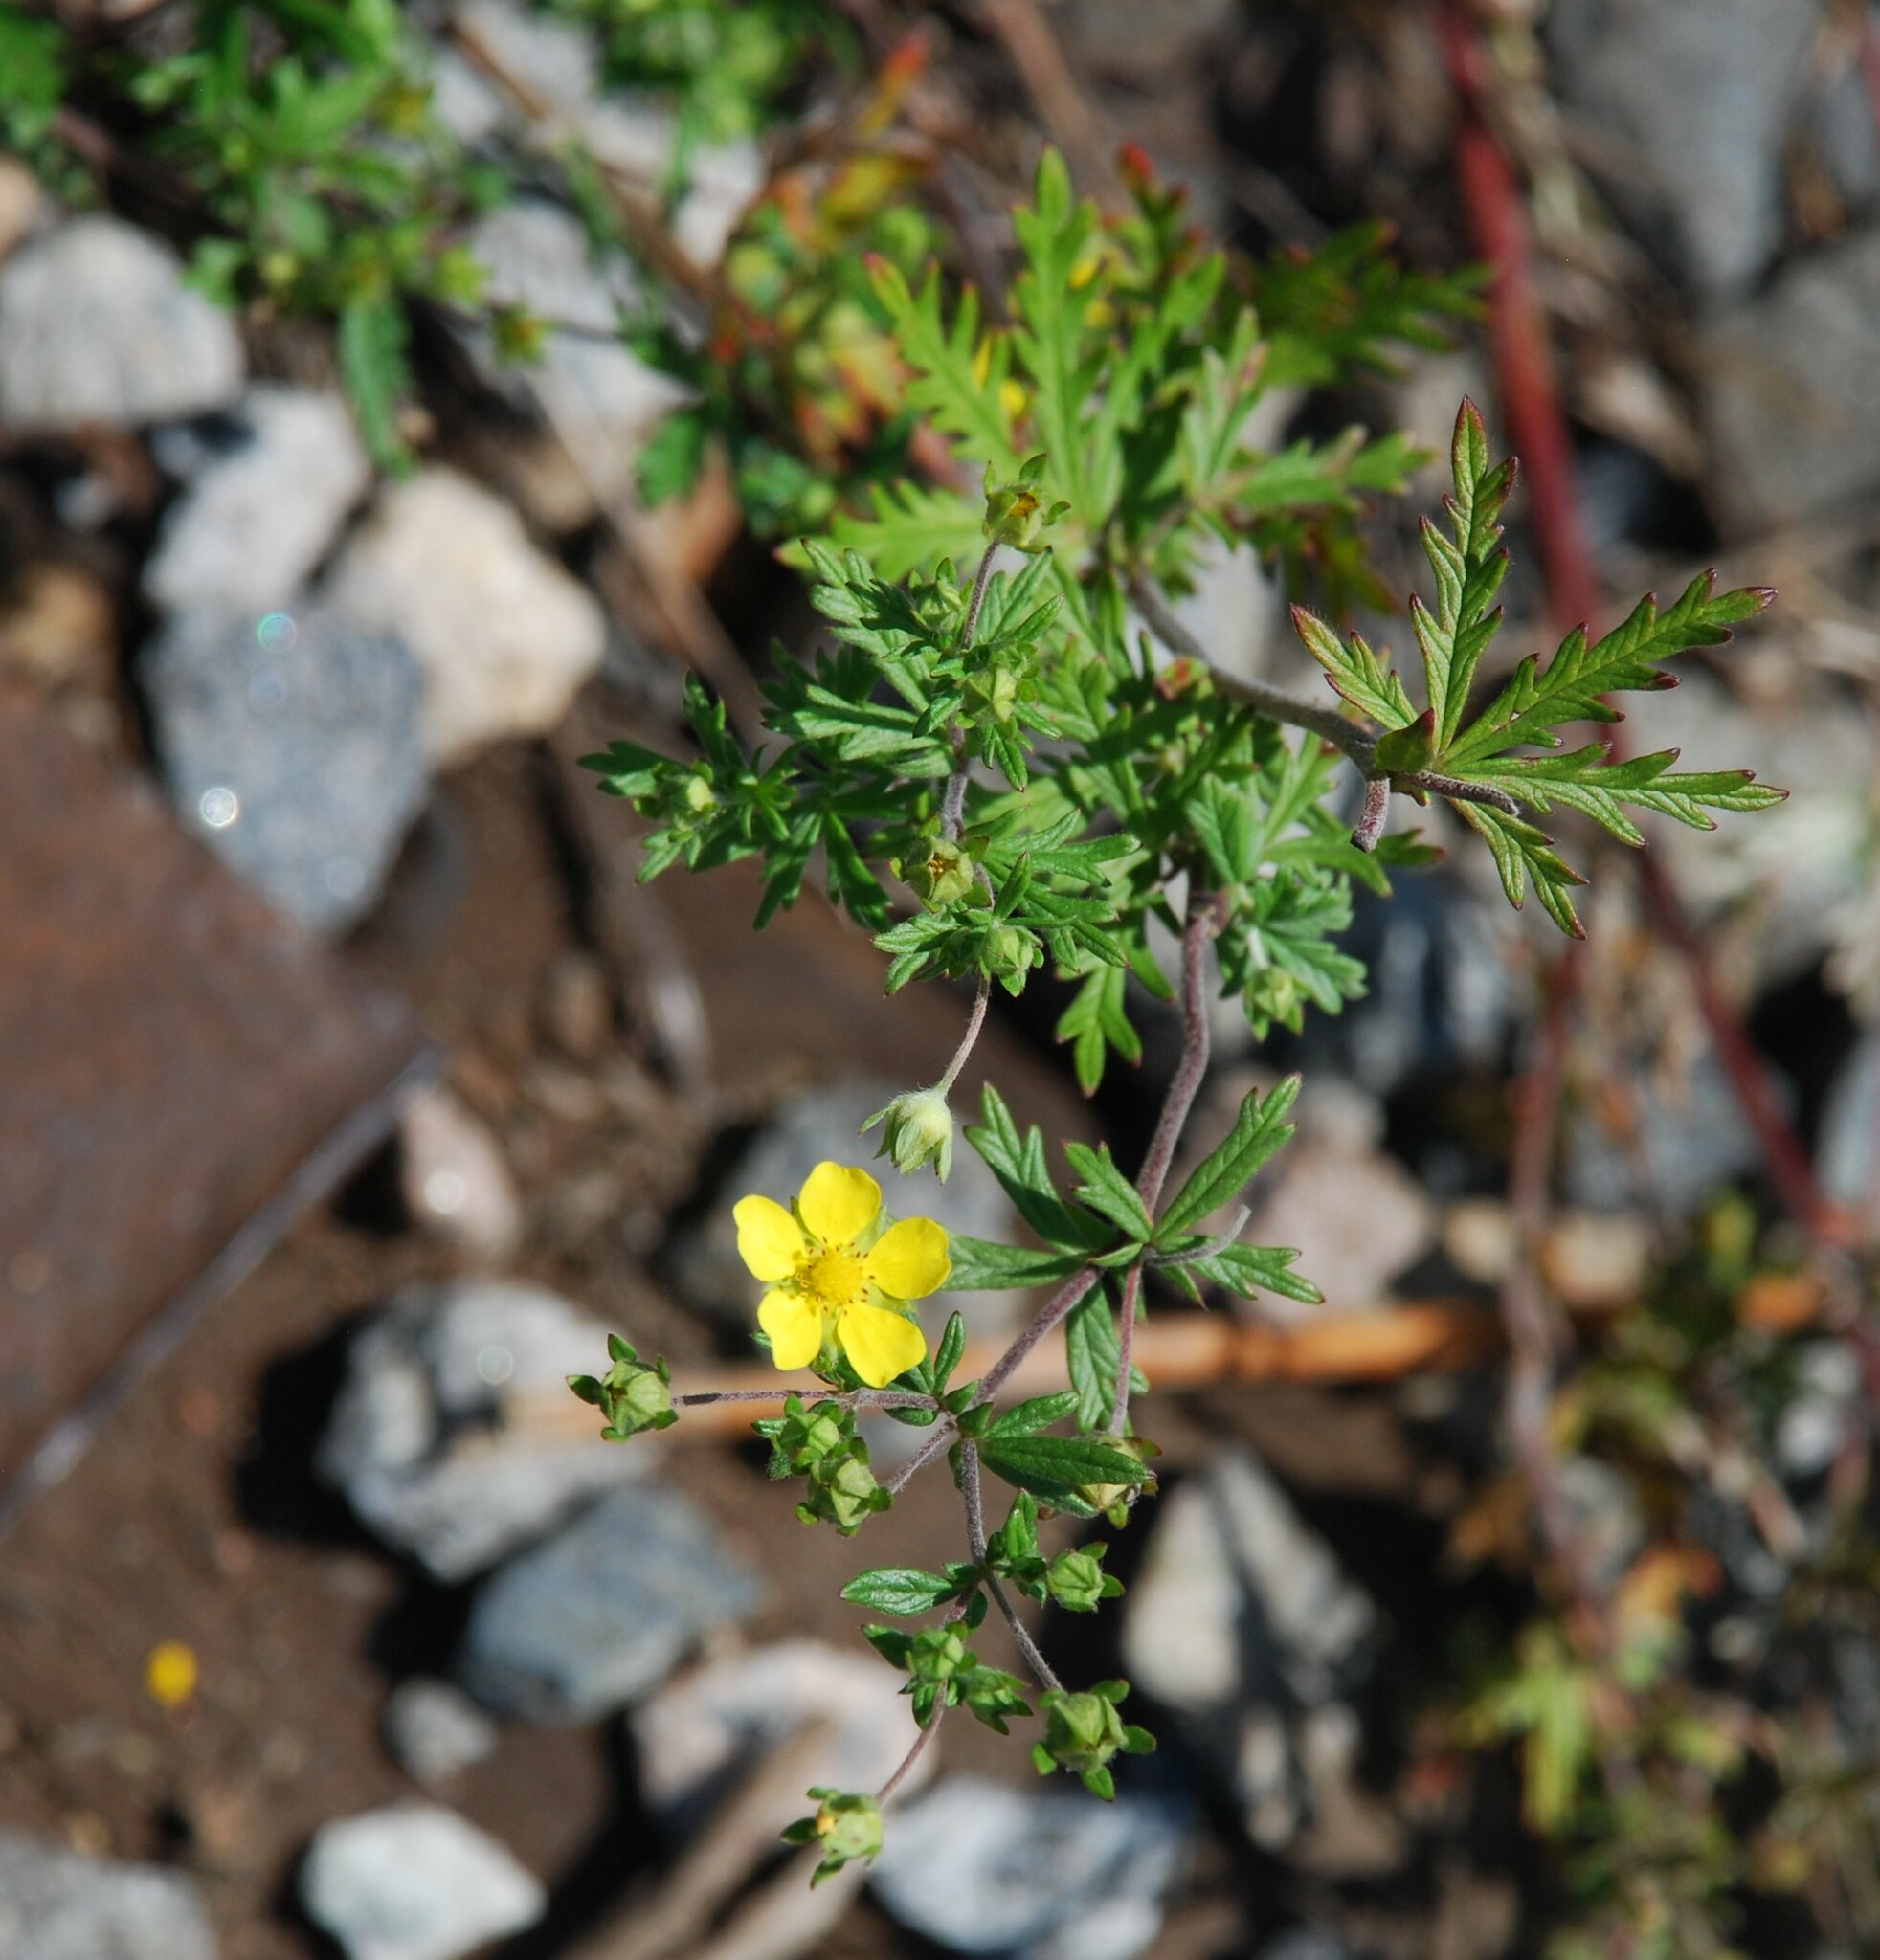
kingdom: Plantae
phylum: Tracheophyta
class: Magnoliopsida
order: Rosales
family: Rosaceae
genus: Potentilla
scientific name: Potentilla argentea
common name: Hoary cinquefoil
